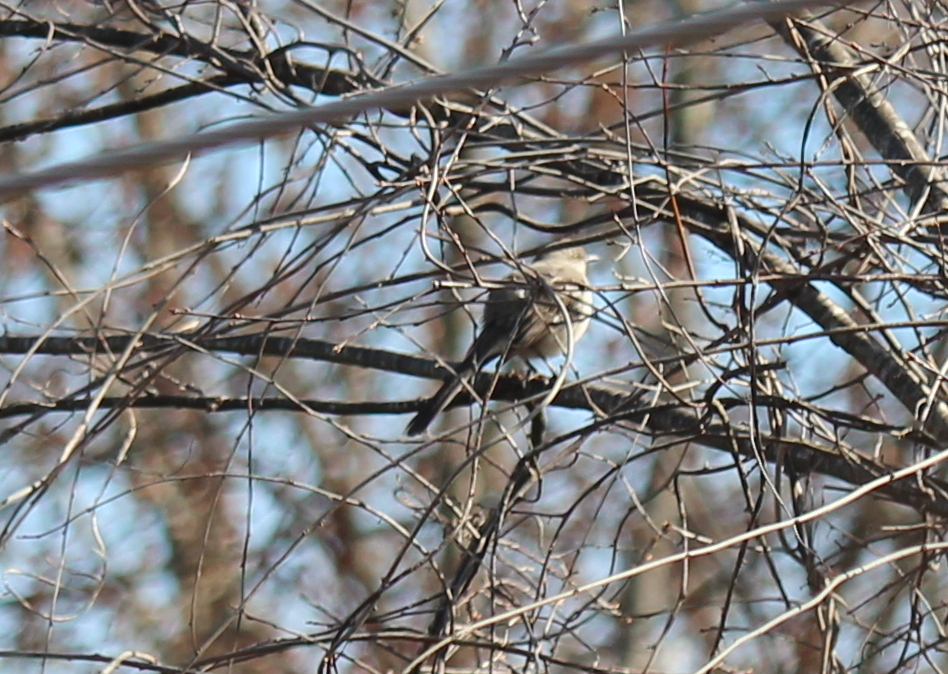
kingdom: Animalia
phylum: Chordata
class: Aves
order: Passeriformes
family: Mimidae
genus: Mimus
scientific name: Mimus polyglottos
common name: Northern mockingbird
